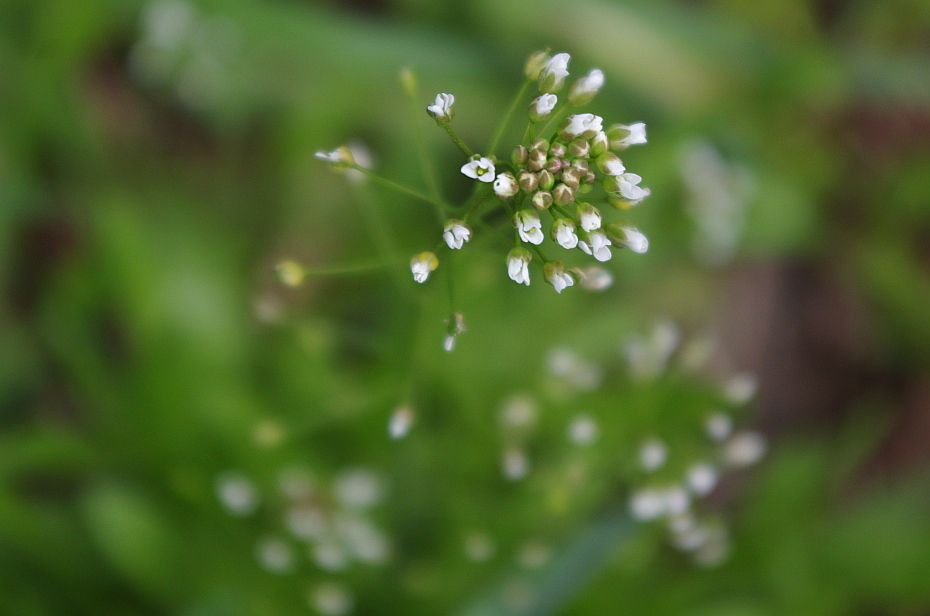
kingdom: Plantae
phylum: Tracheophyta
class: Magnoliopsida
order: Brassicales
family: Brassicaceae
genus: Capsella
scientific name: Capsella bursa-pastoris
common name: Shepherd's purse
